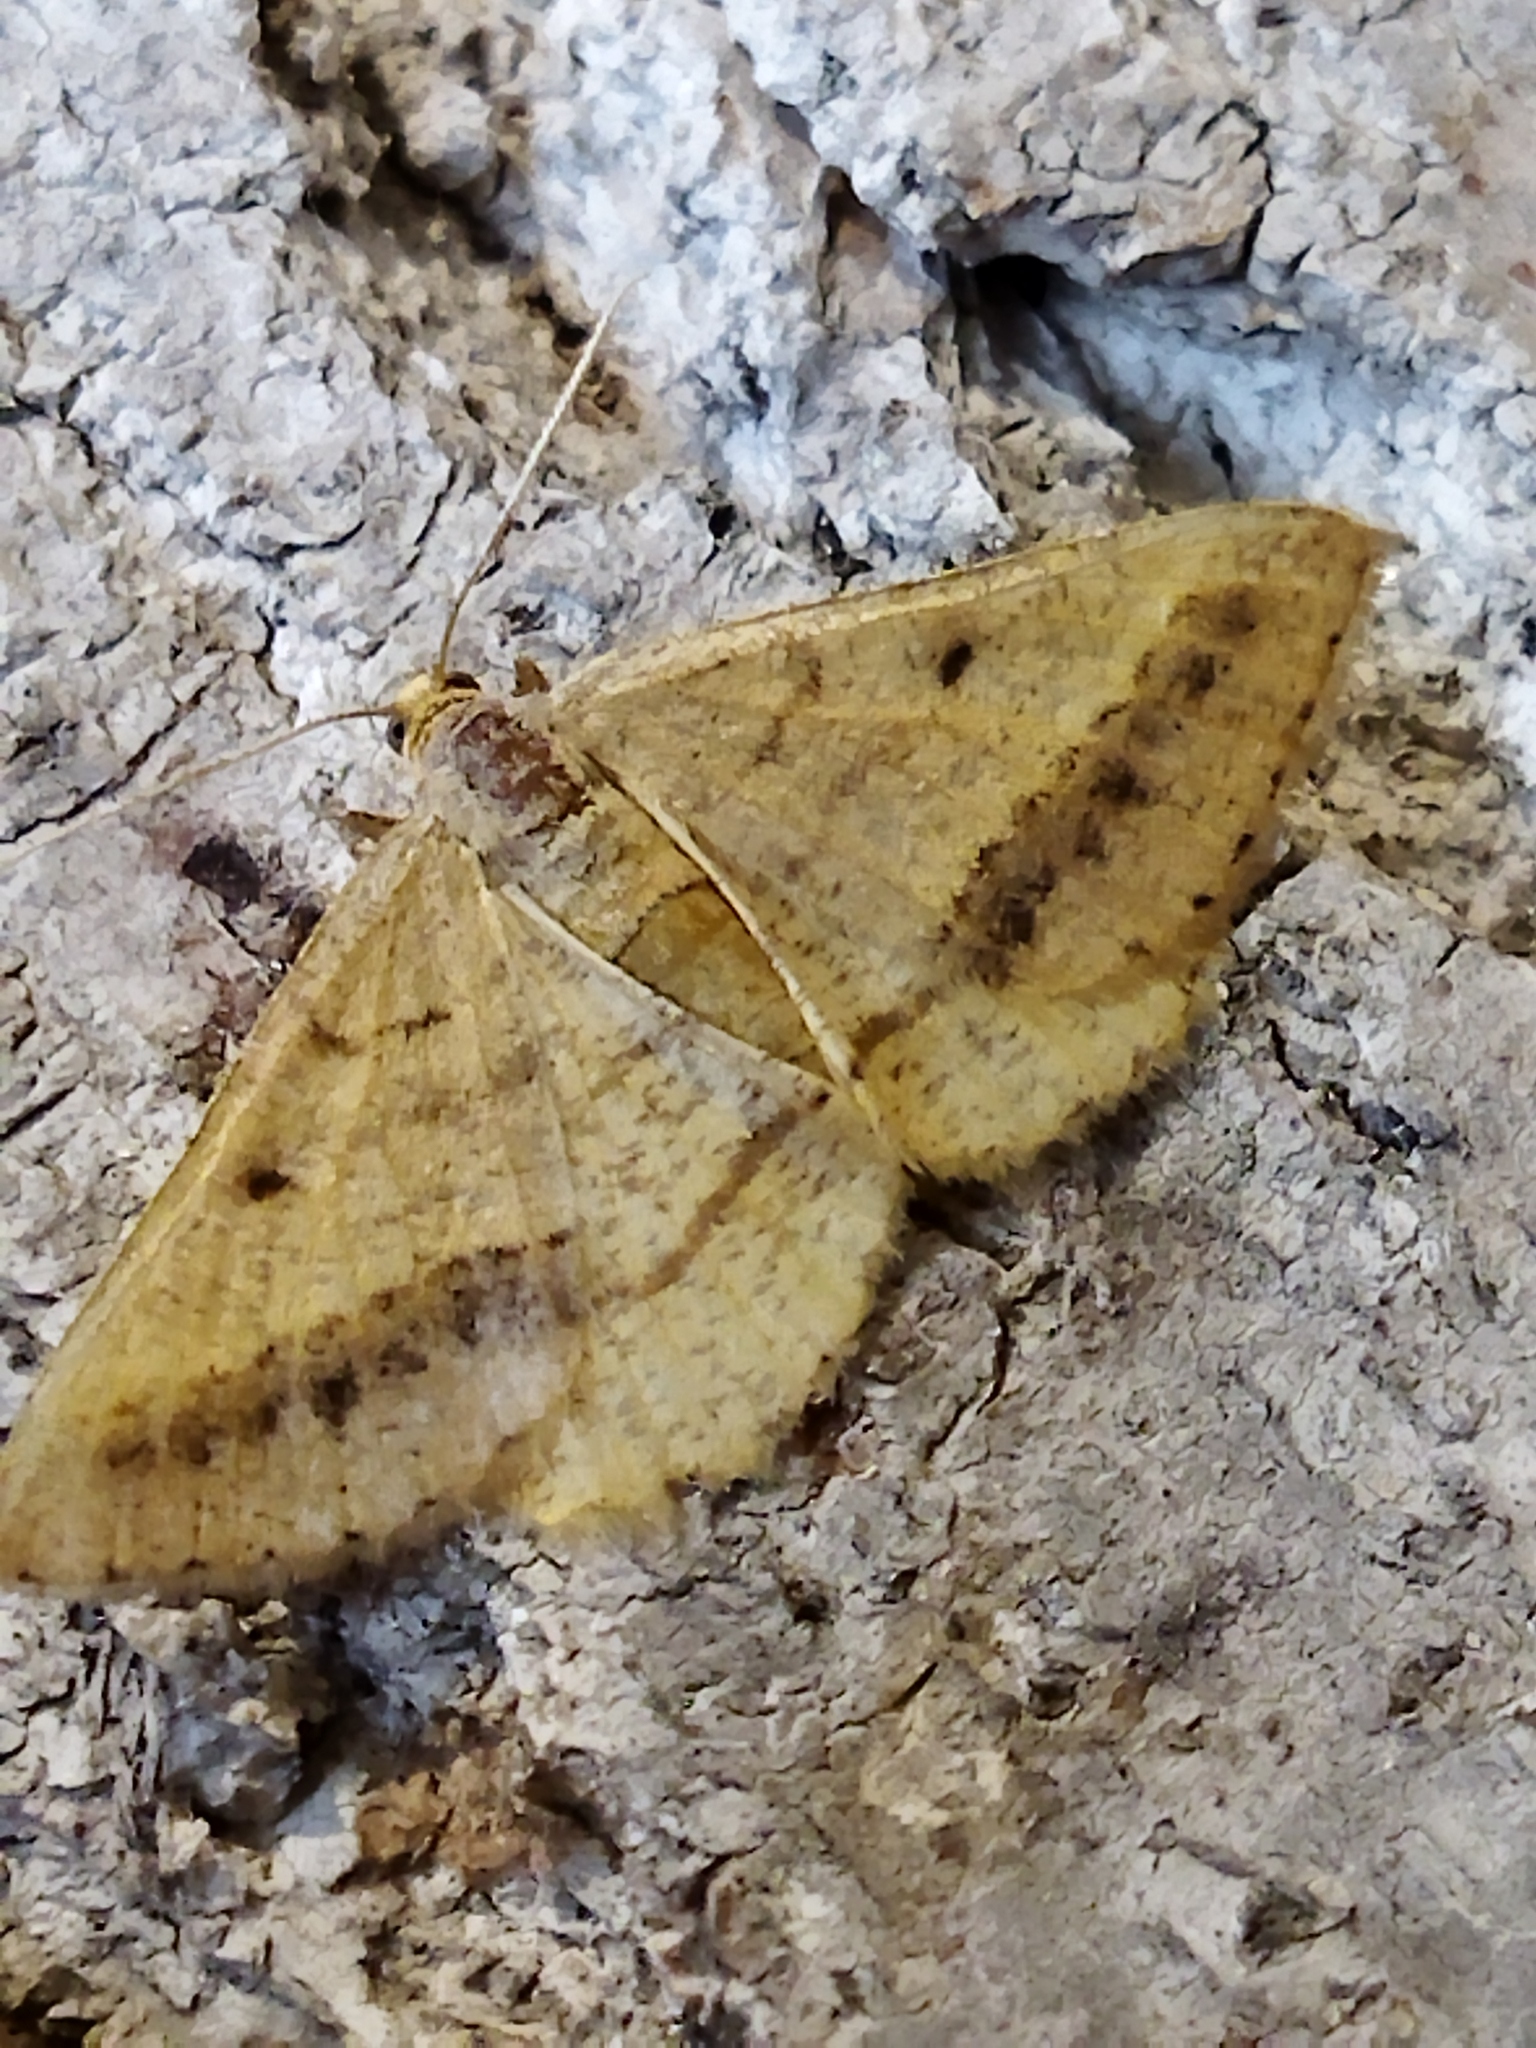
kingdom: Animalia
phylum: Arthropoda
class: Insecta
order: Lepidoptera
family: Geometridae
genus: Tephrina
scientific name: Tephrina arenacearia
